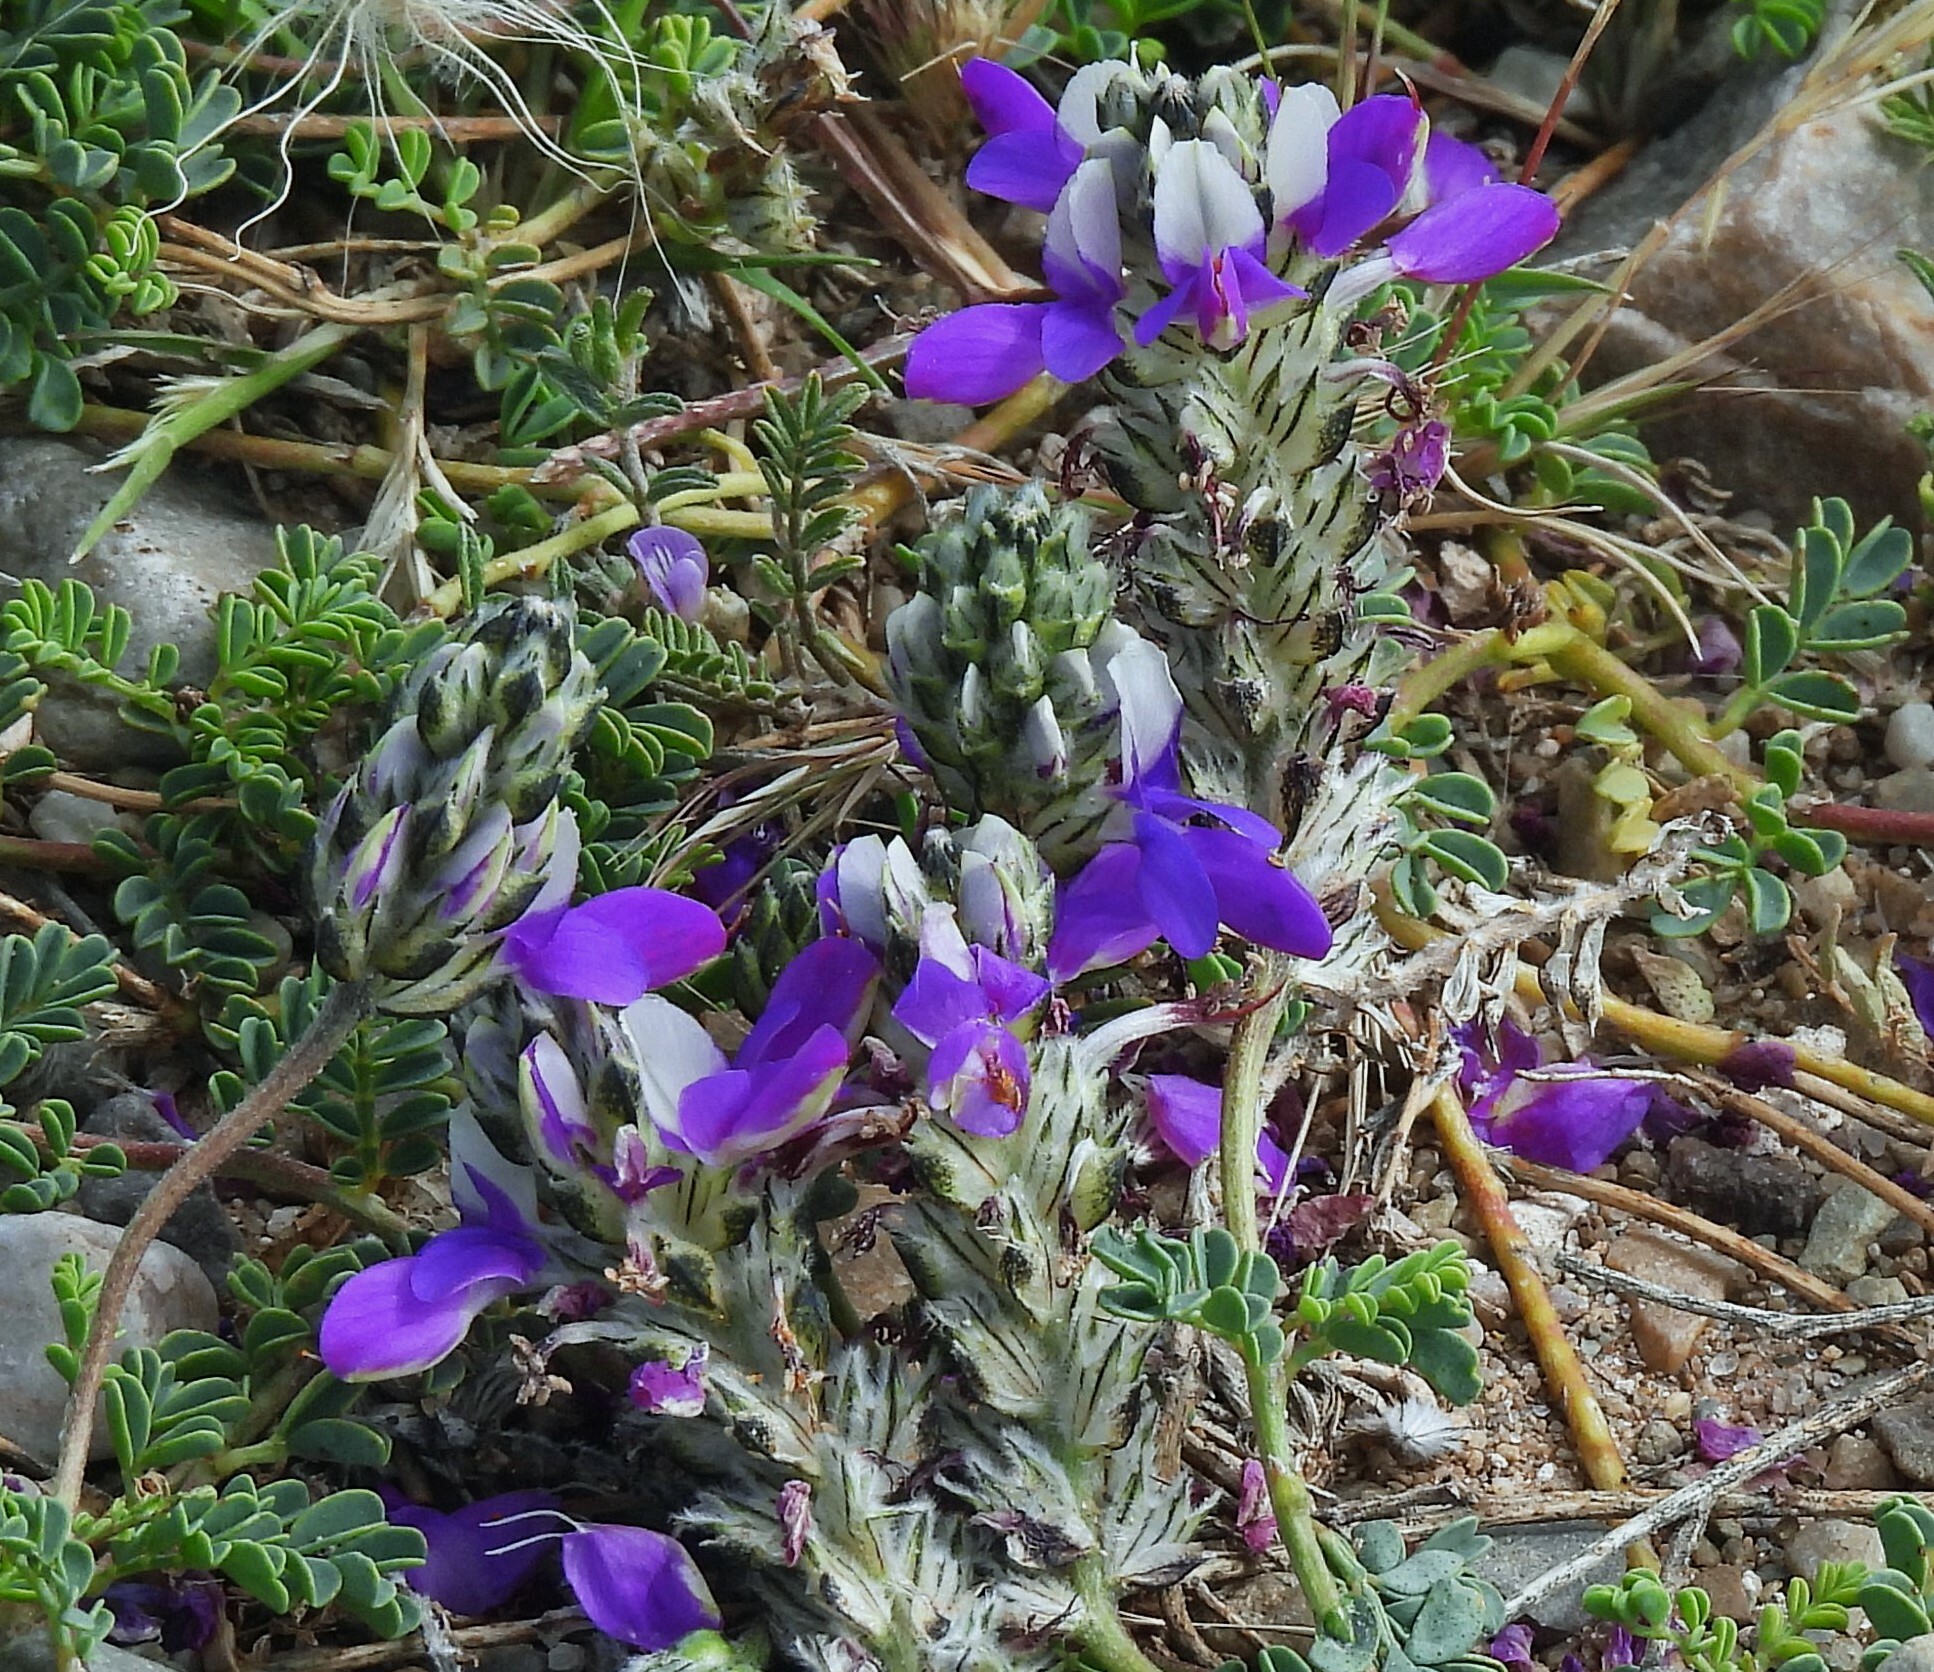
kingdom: Plantae
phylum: Tracheophyta
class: Magnoliopsida
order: Fabales
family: Fabaceae
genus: Dalea
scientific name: Dalea boliviana
